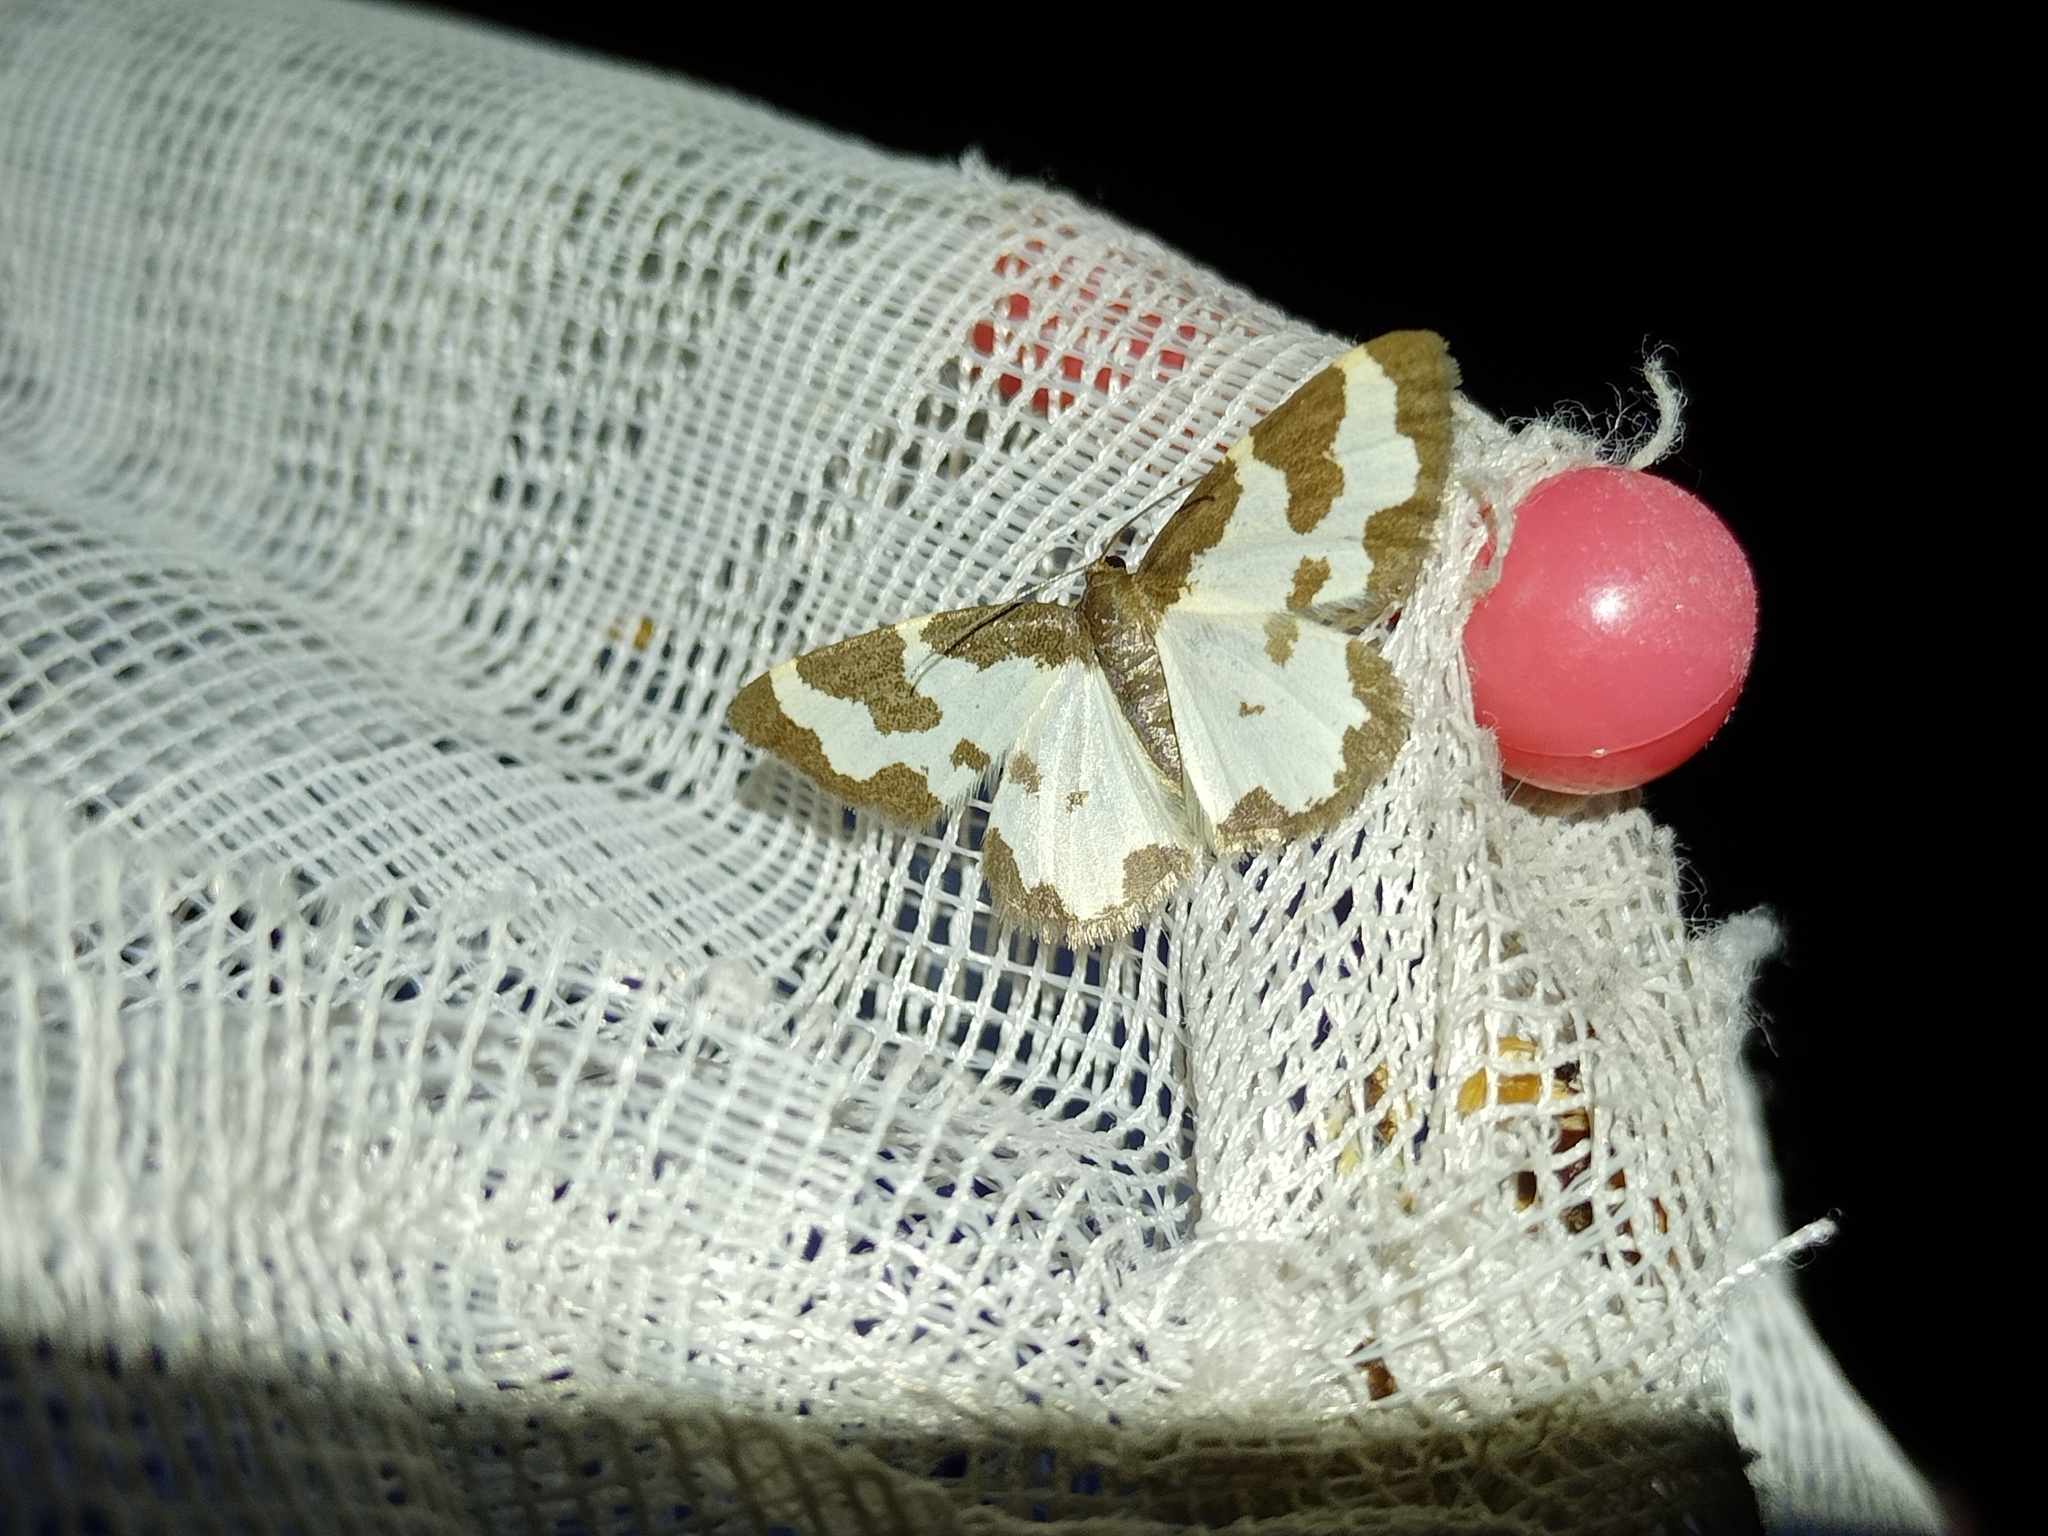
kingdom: Animalia
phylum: Arthropoda
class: Insecta
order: Lepidoptera
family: Geometridae
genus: Lomaspilis
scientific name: Lomaspilis marginata
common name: Clouded border
